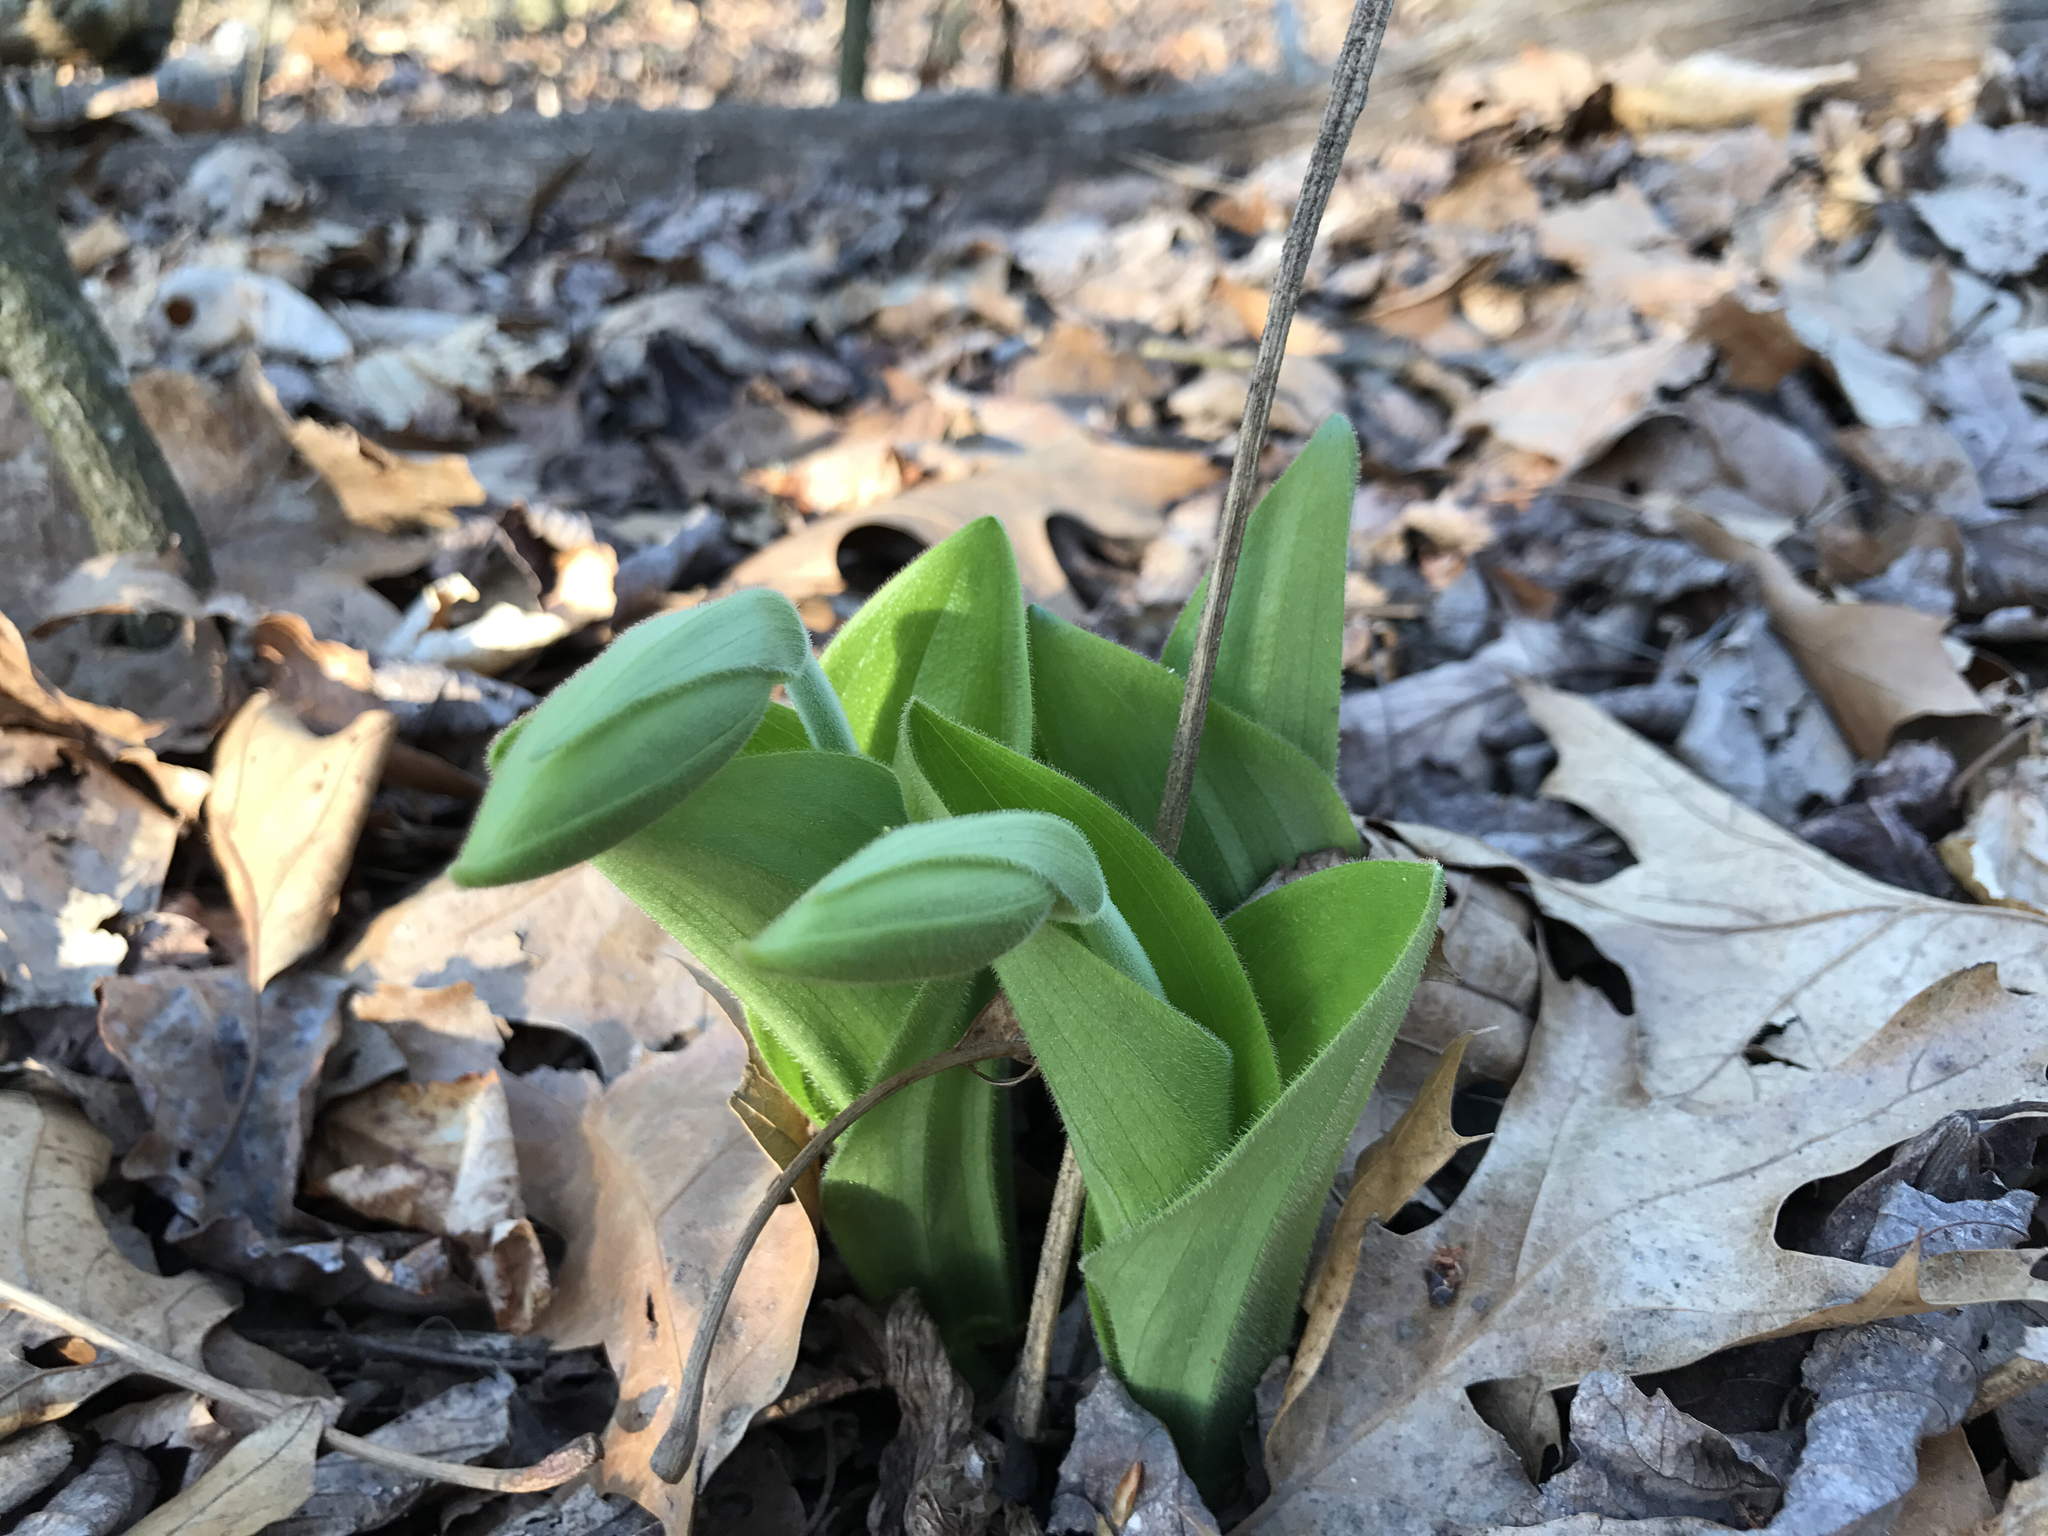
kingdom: Plantae
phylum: Tracheophyta
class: Liliopsida
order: Asparagales
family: Orchidaceae
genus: Cypripedium
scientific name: Cypripedium acaule
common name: Pink lady's-slipper
